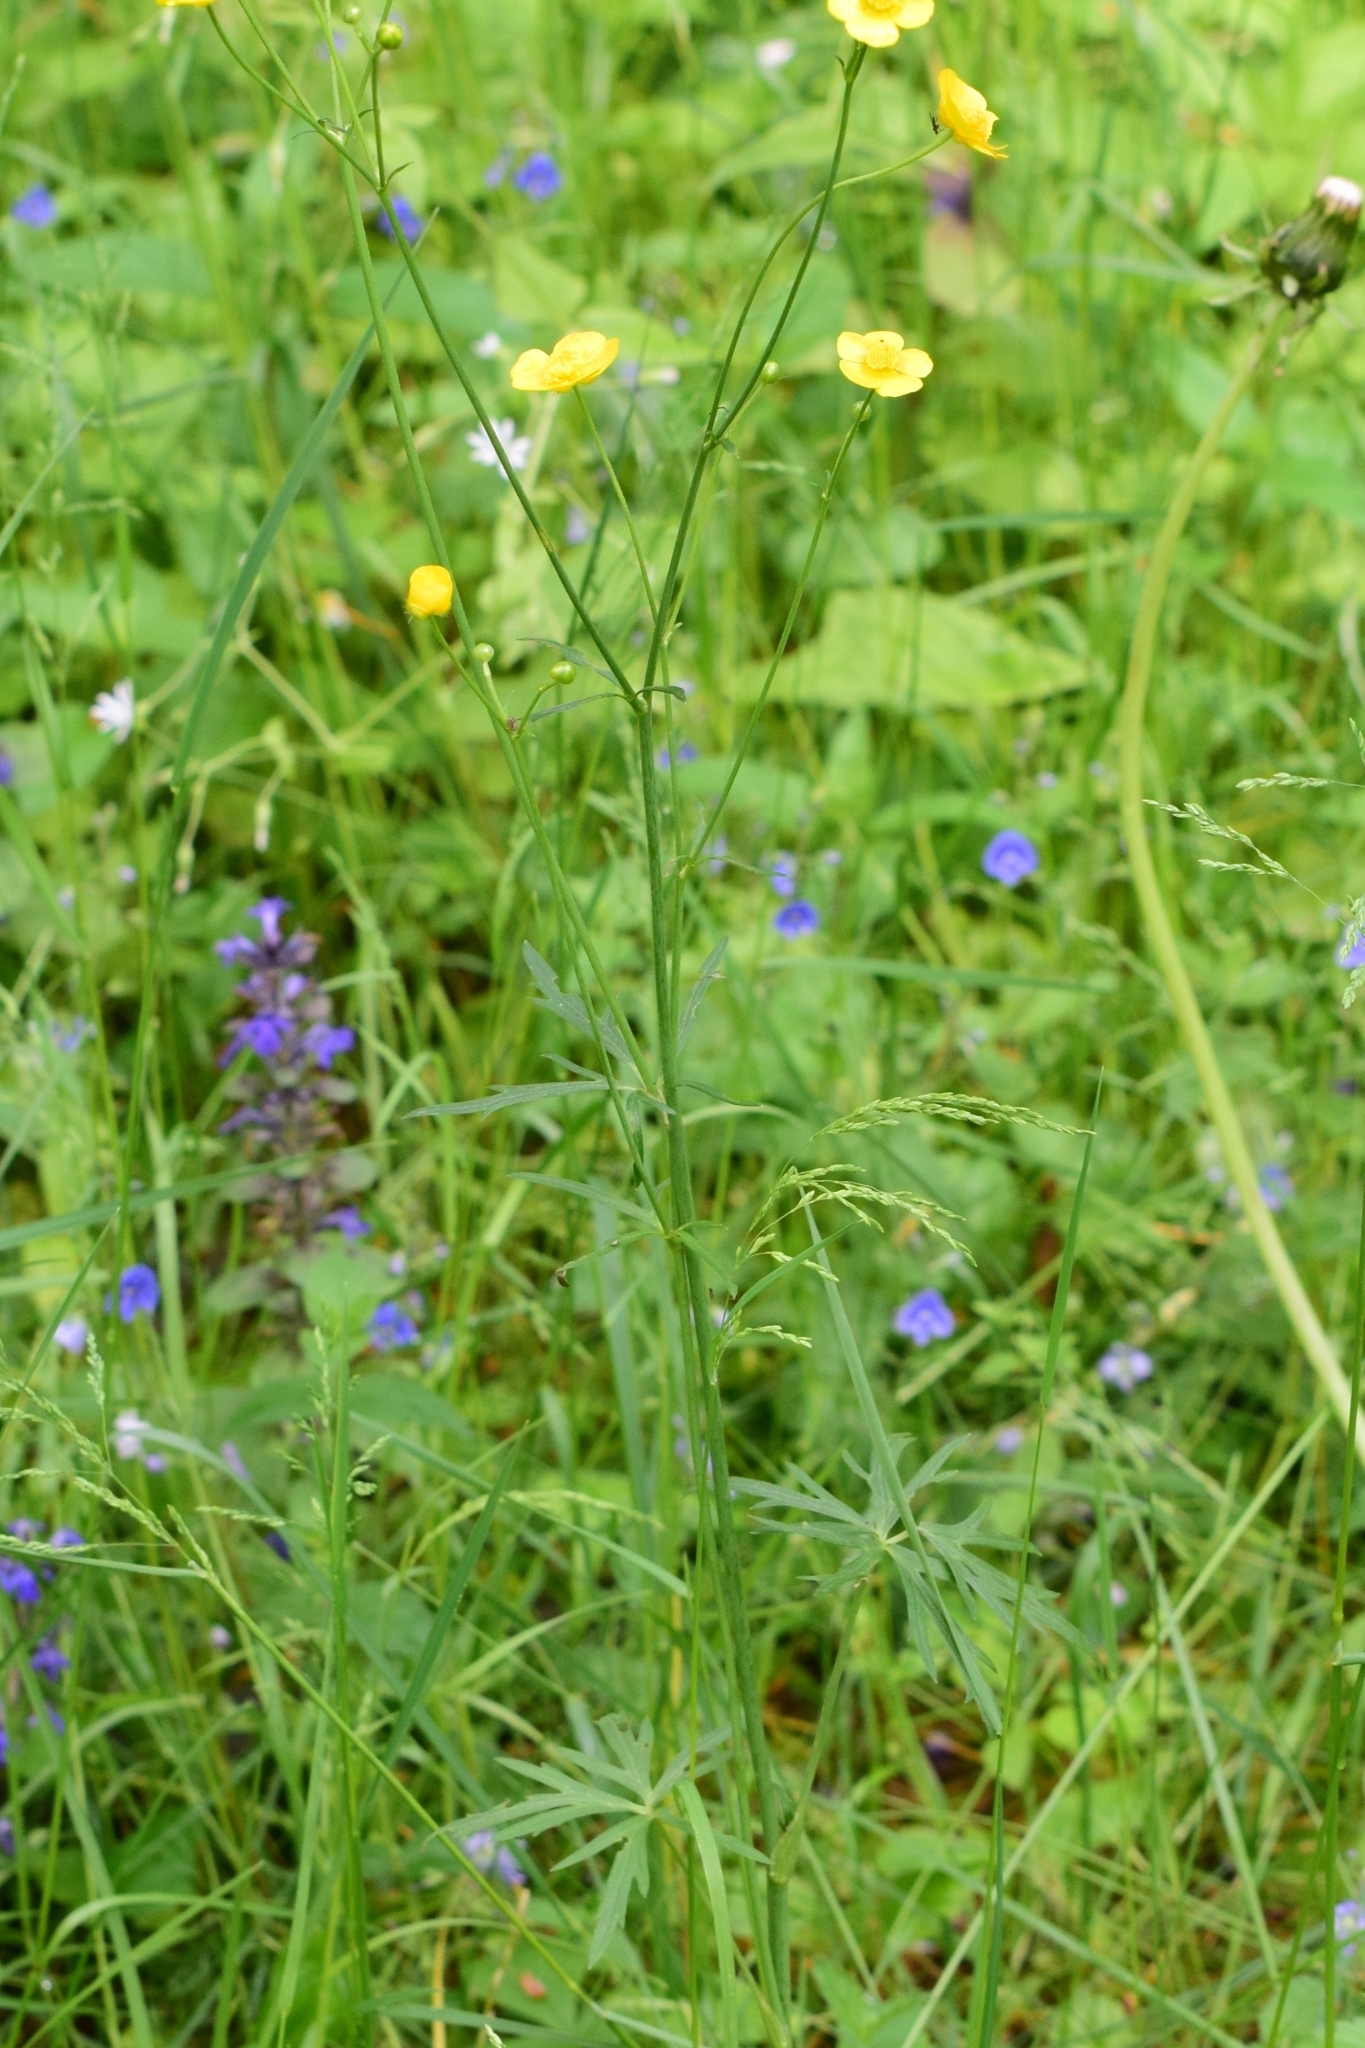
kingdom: Plantae
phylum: Tracheophyta
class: Magnoliopsida
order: Ranunculales
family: Ranunculaceae
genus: Ranunculus
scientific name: Ranunculus acris
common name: Meadow buttercup
